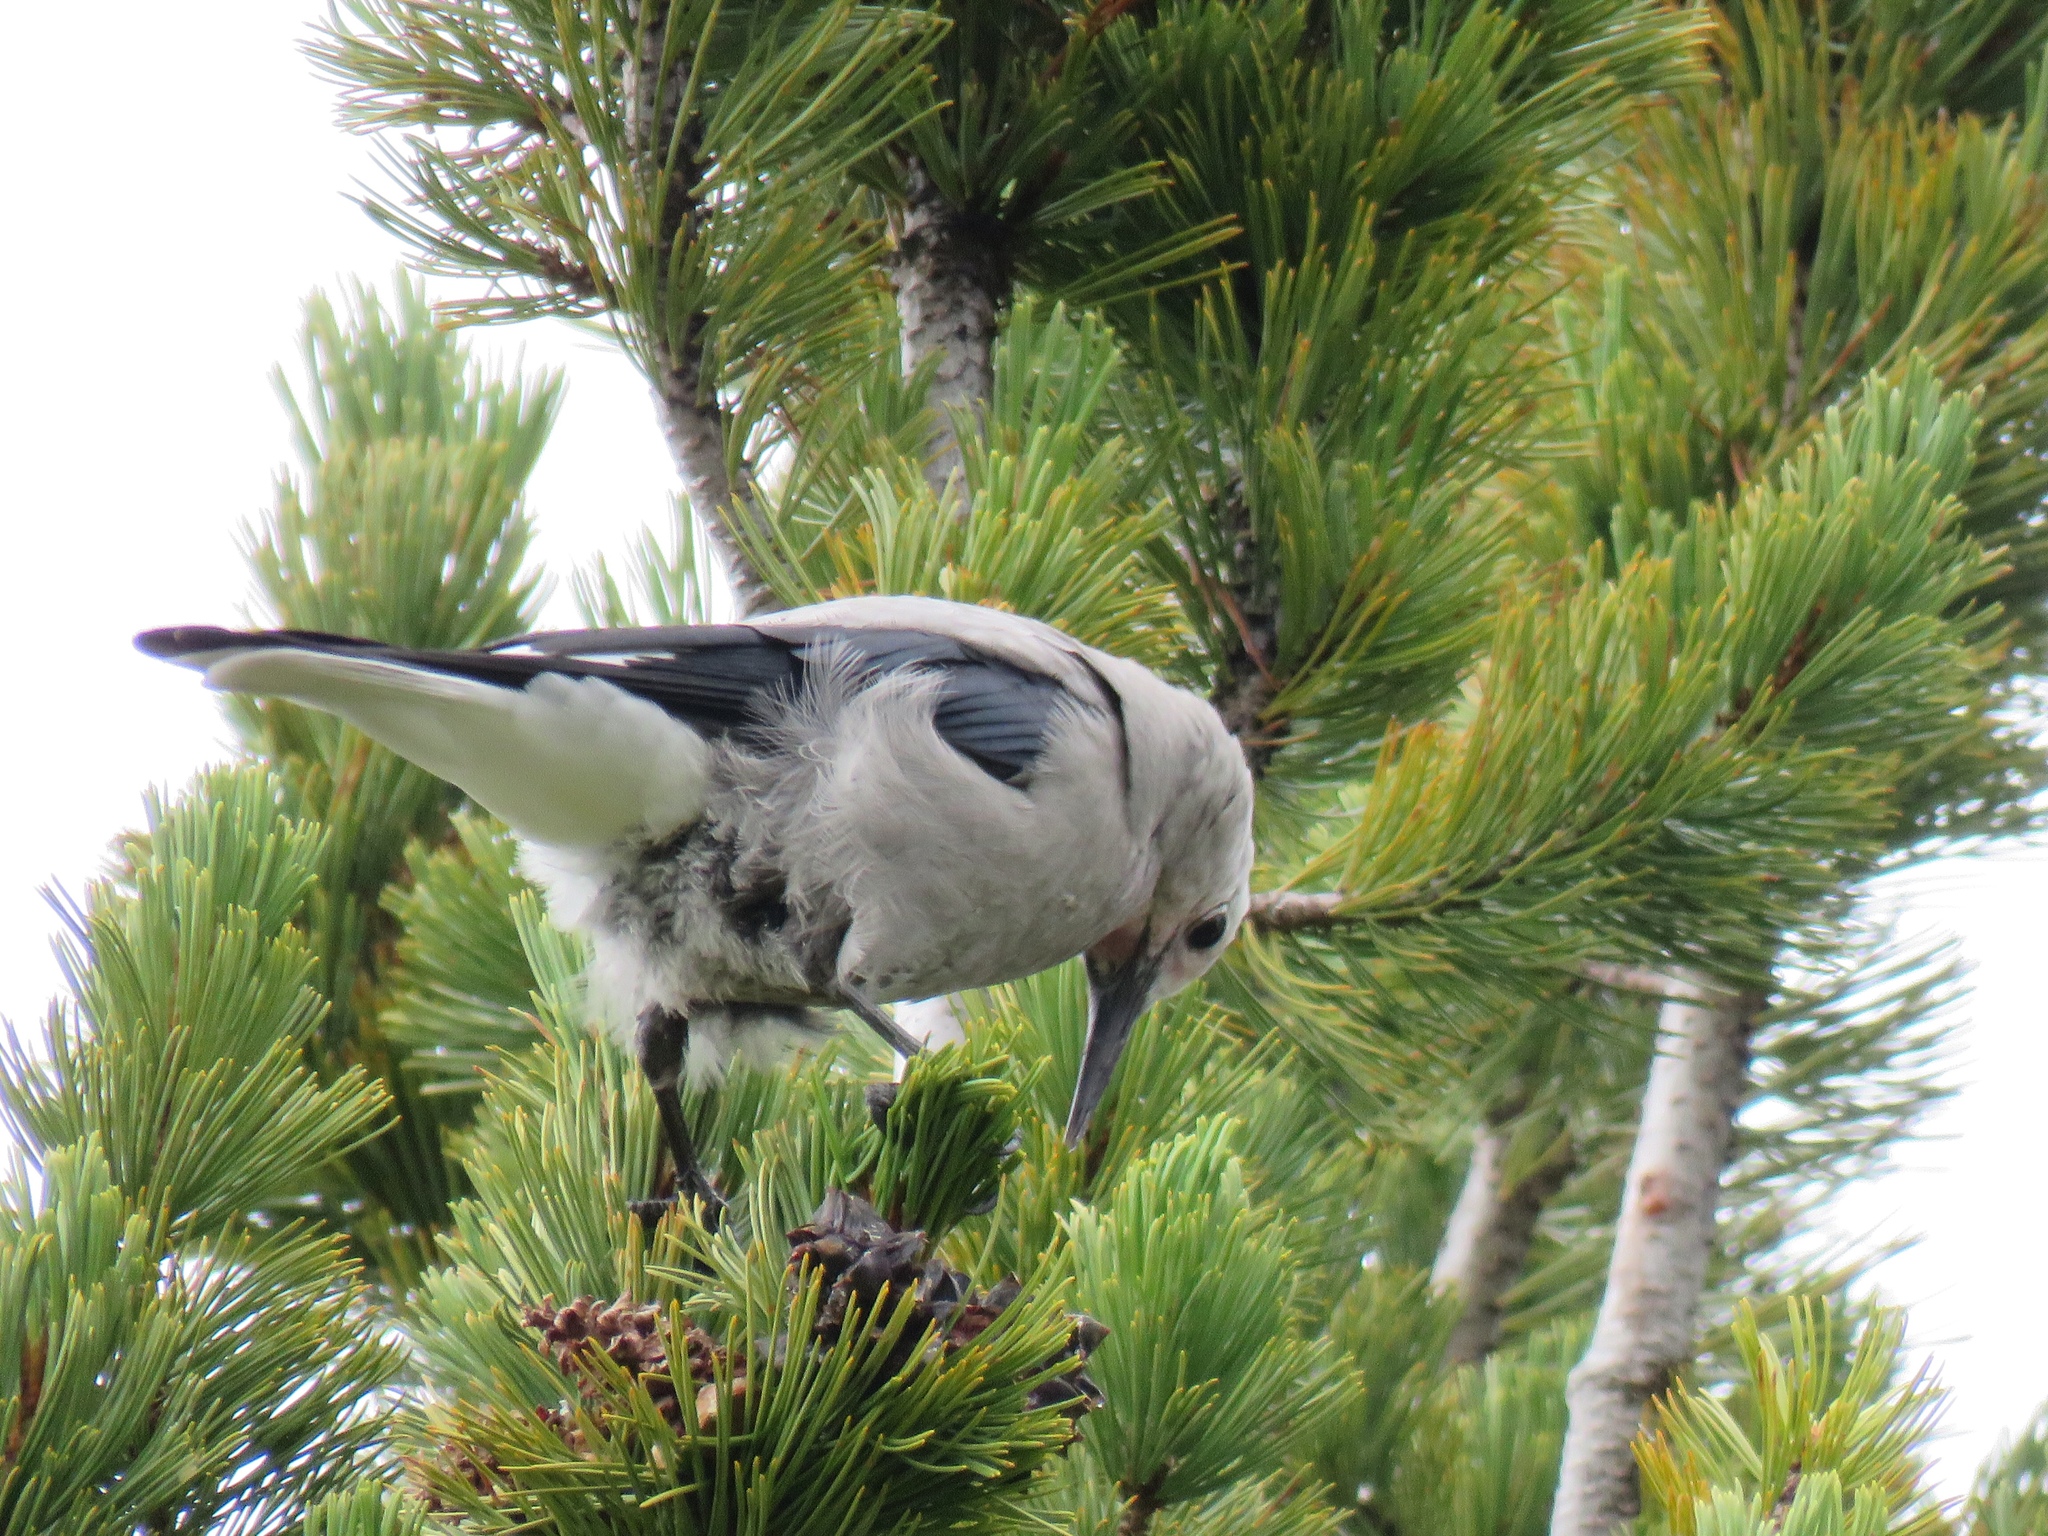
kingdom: Animalia
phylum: Chordata
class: Aves
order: Passeriformes
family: Corvidae
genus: Nucifraga
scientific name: Nucifraga columbiana
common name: Clark's nutcracker
